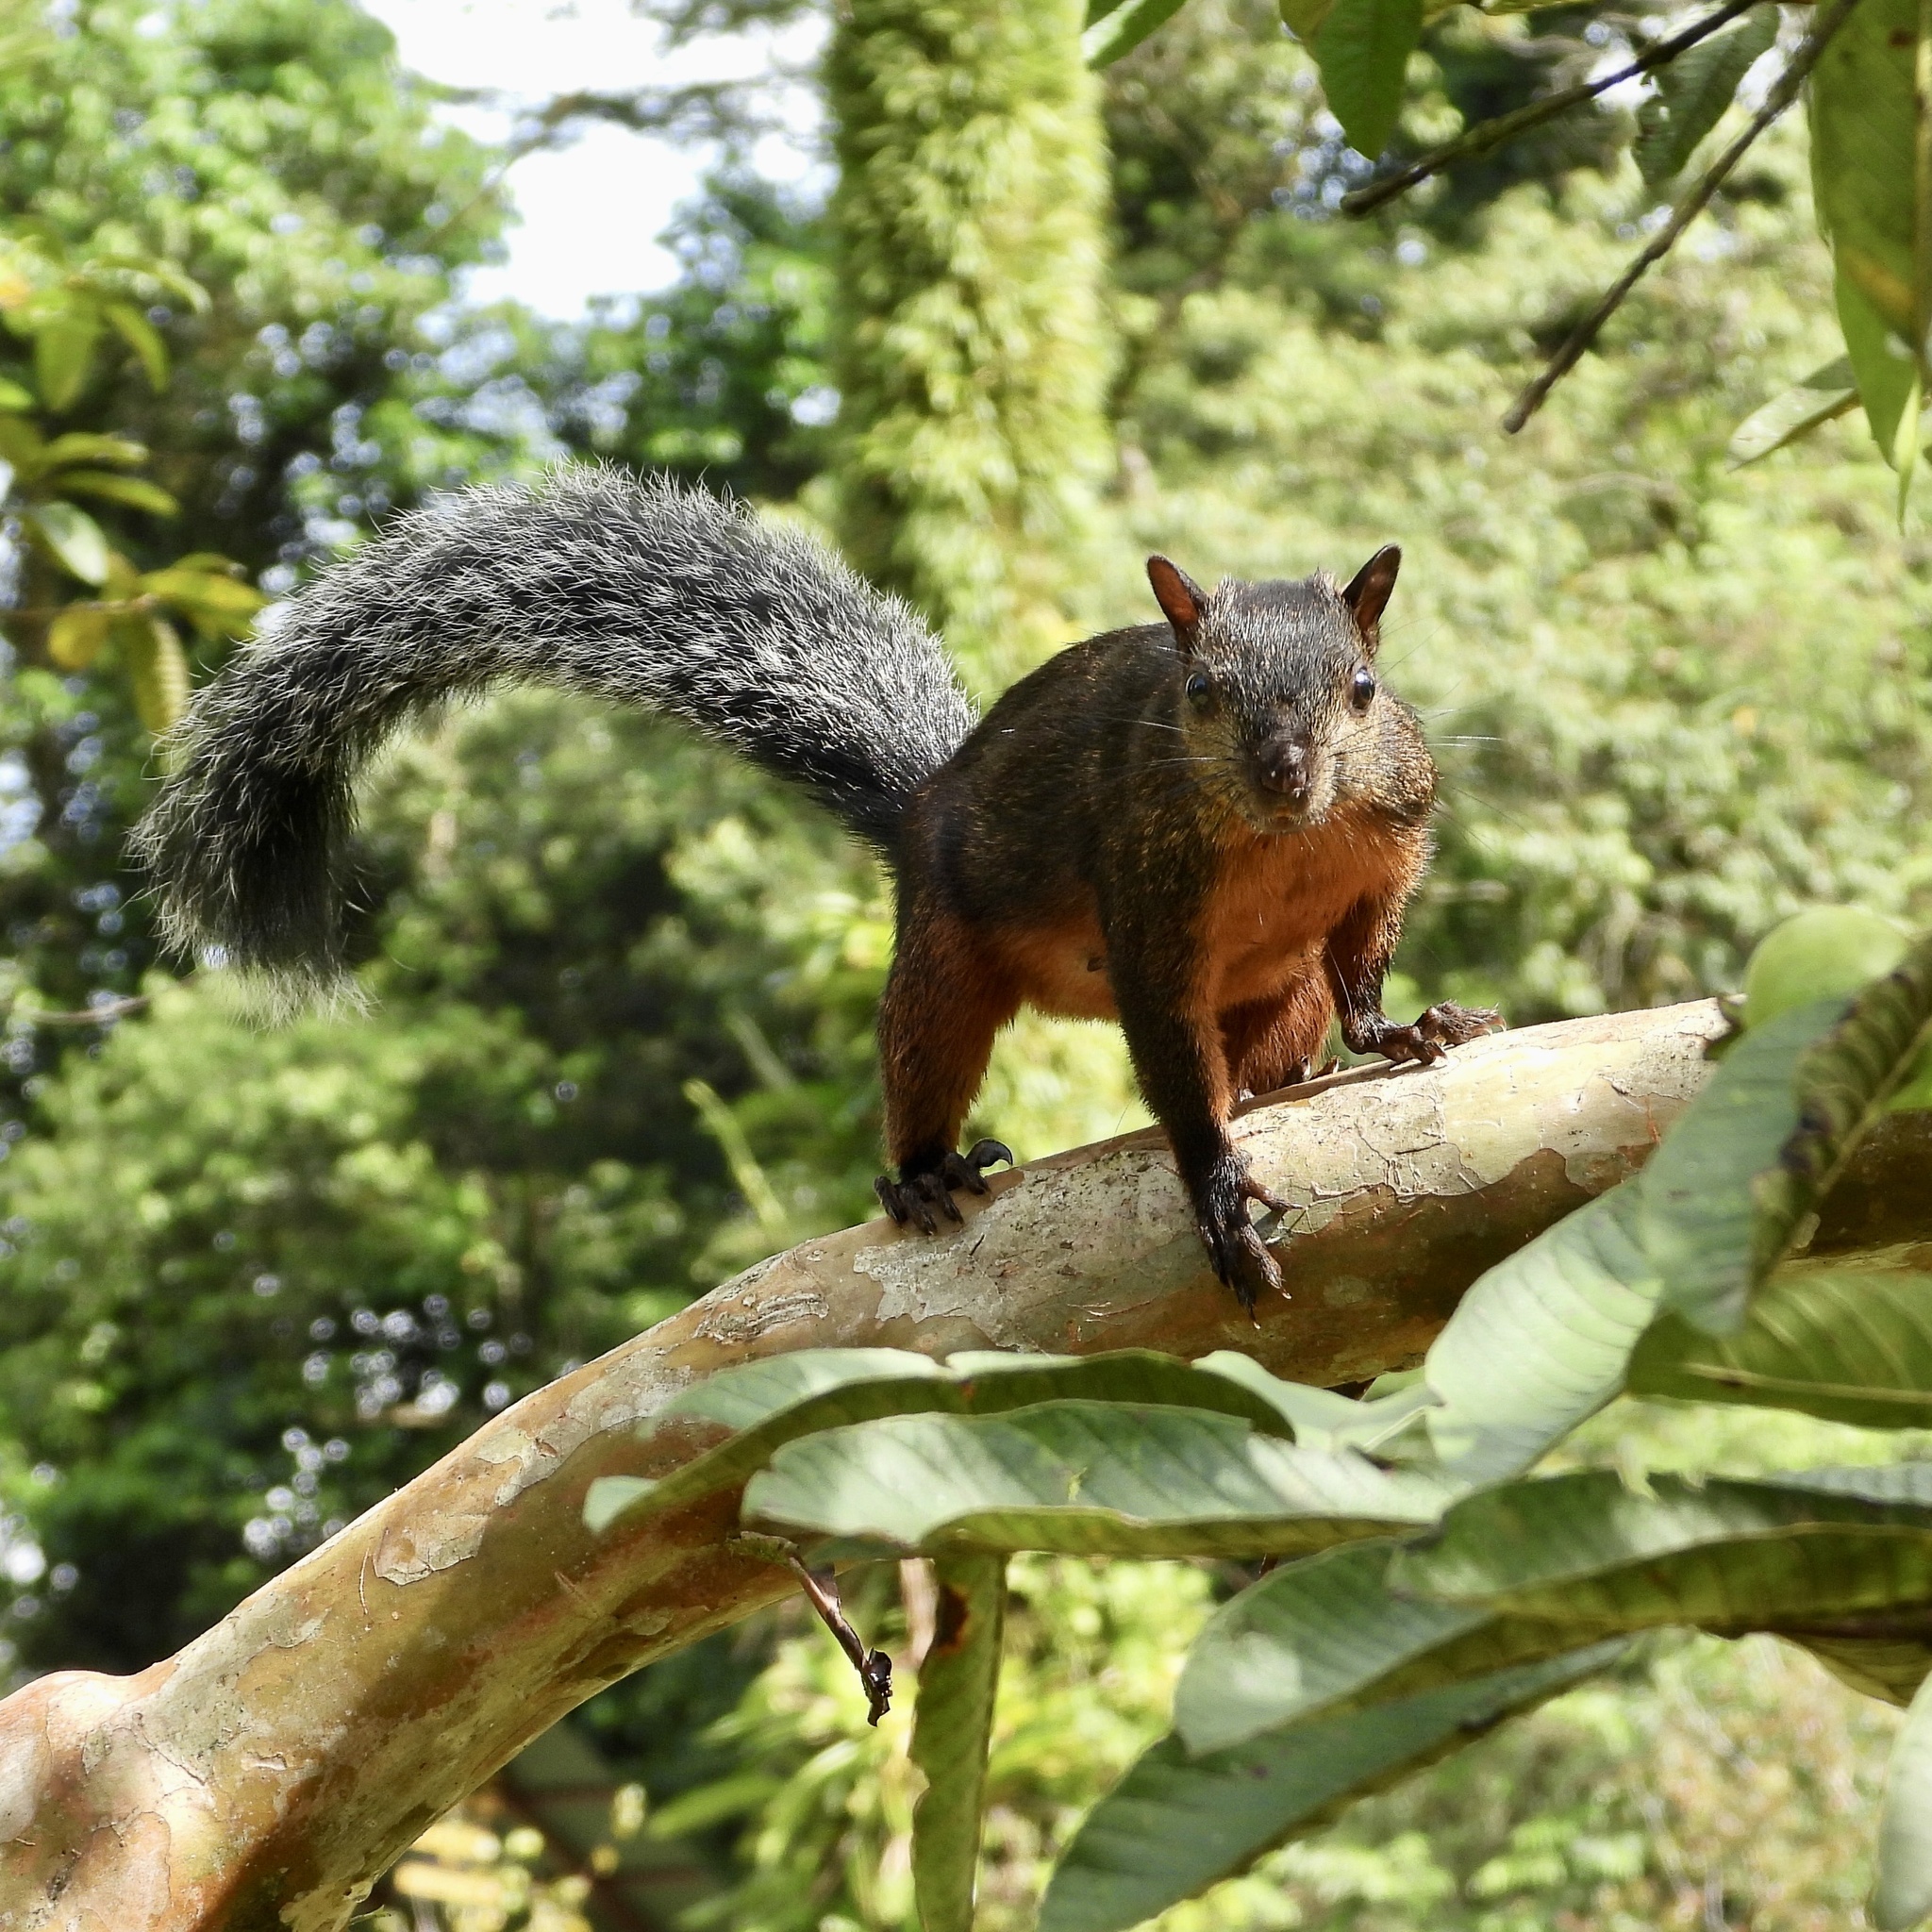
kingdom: Animalia
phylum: Chordata
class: Mammalia
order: Rodentia
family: Sciuridae
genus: Sciurus
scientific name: Sciurus variegatoides
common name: Variegated squirrel
